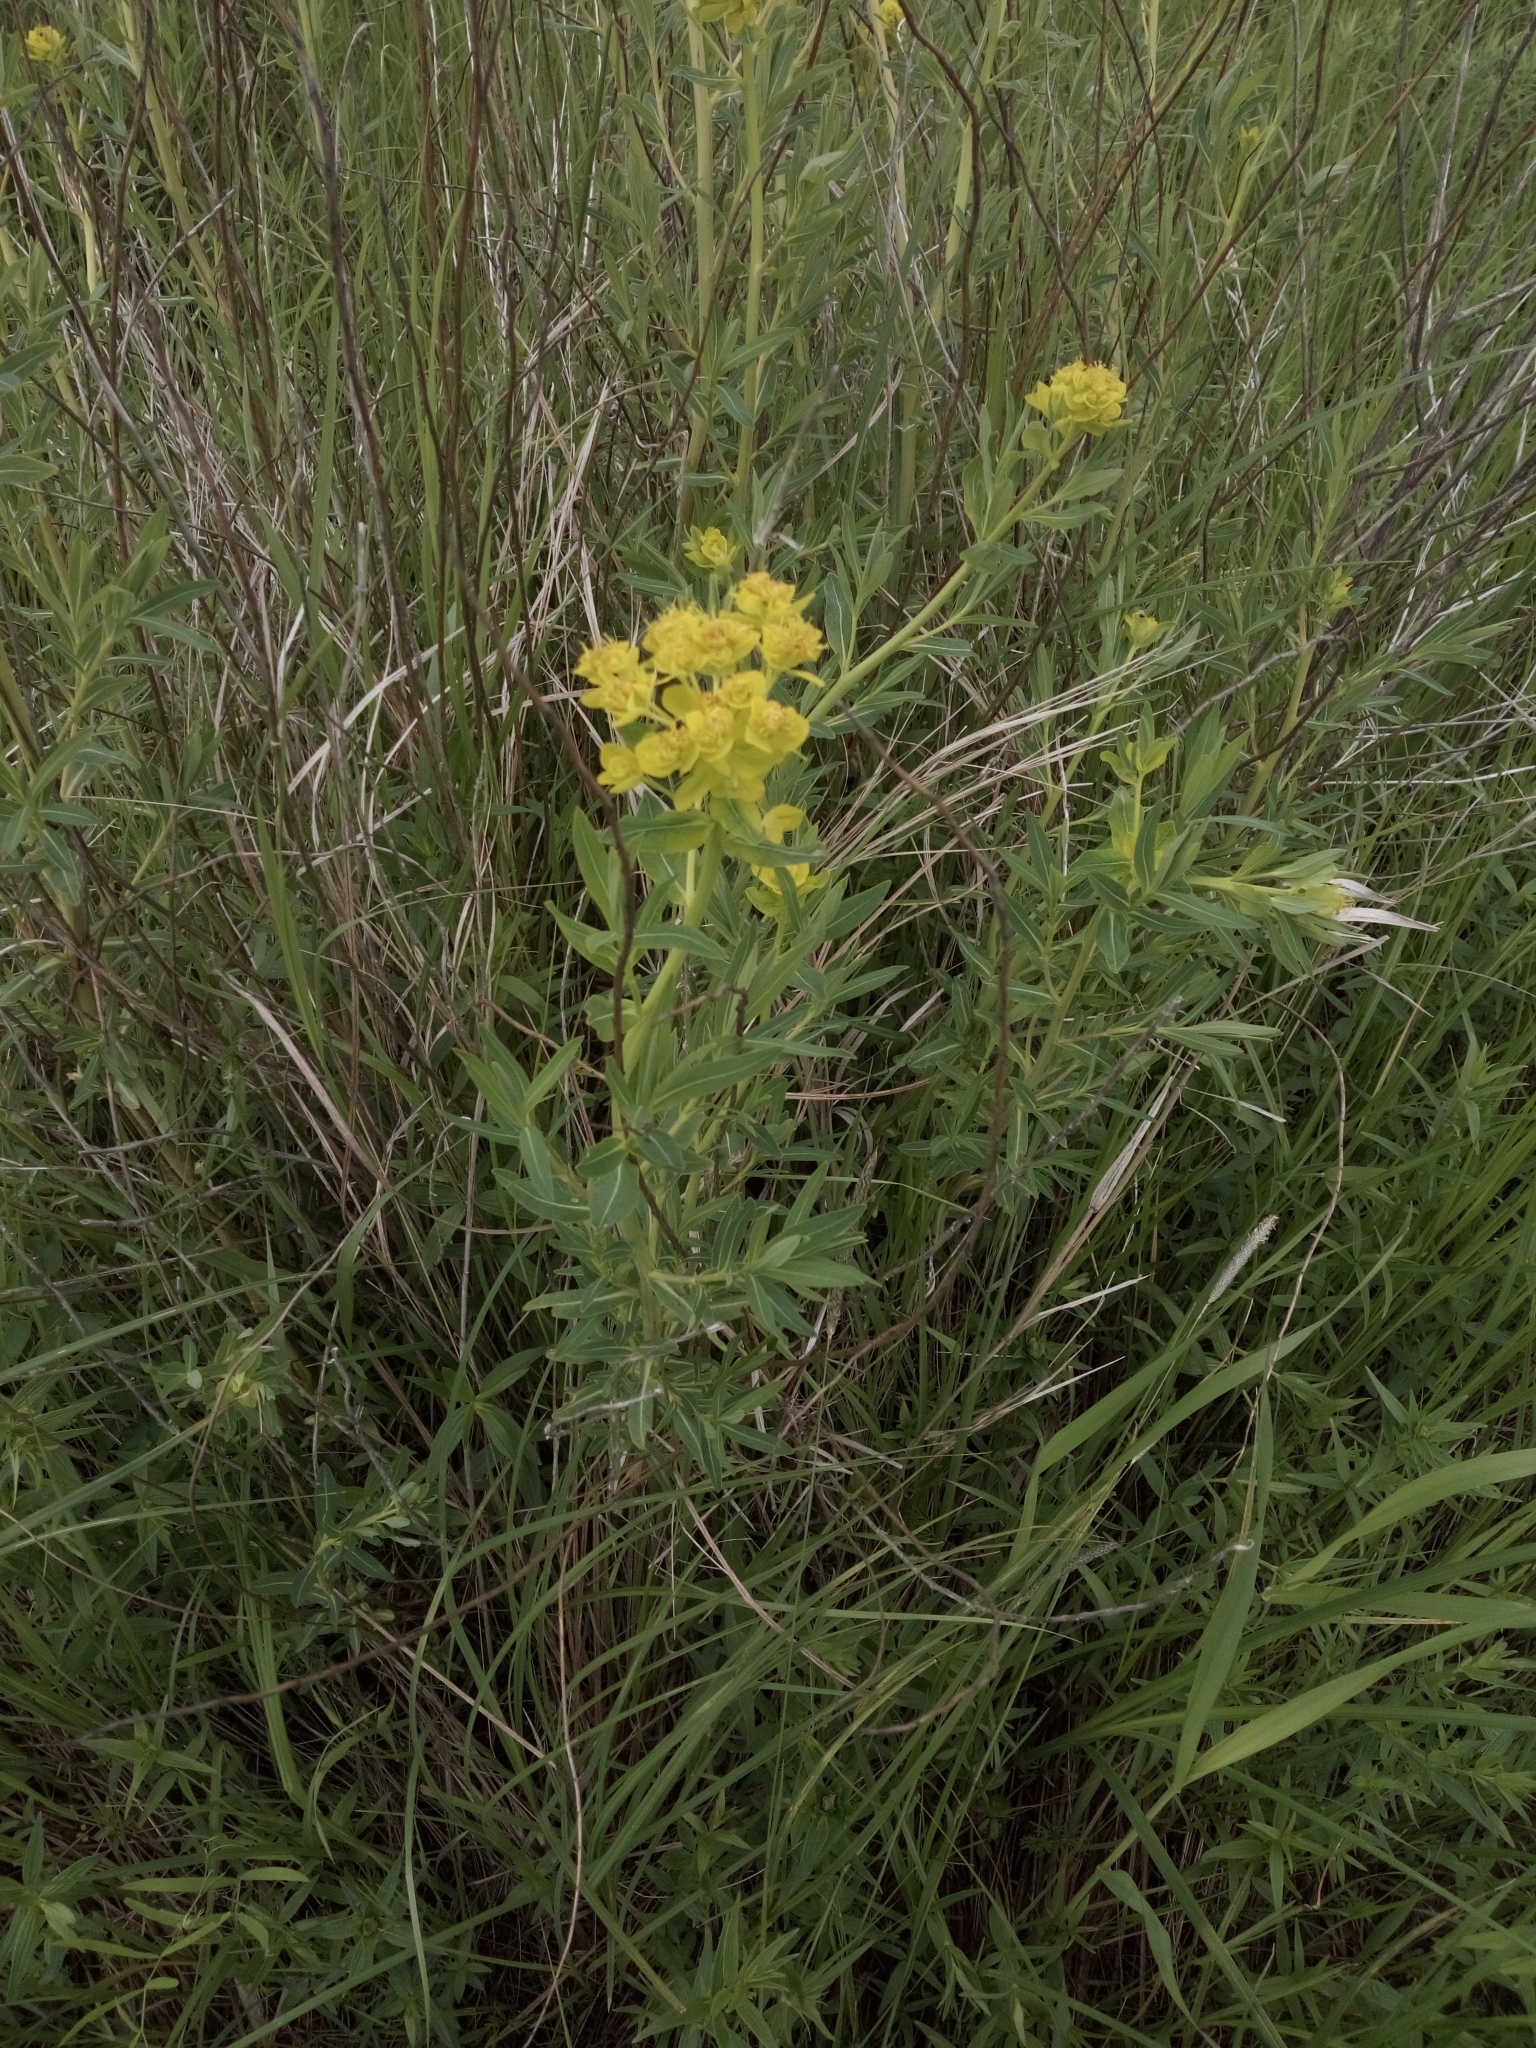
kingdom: Plantae
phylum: Tracheophyta
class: Magnoliopsida
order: Malpighiales
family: Euphorbiaceae
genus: Euphorbia
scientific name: Euphorbia palustris
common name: Marsh spurge
